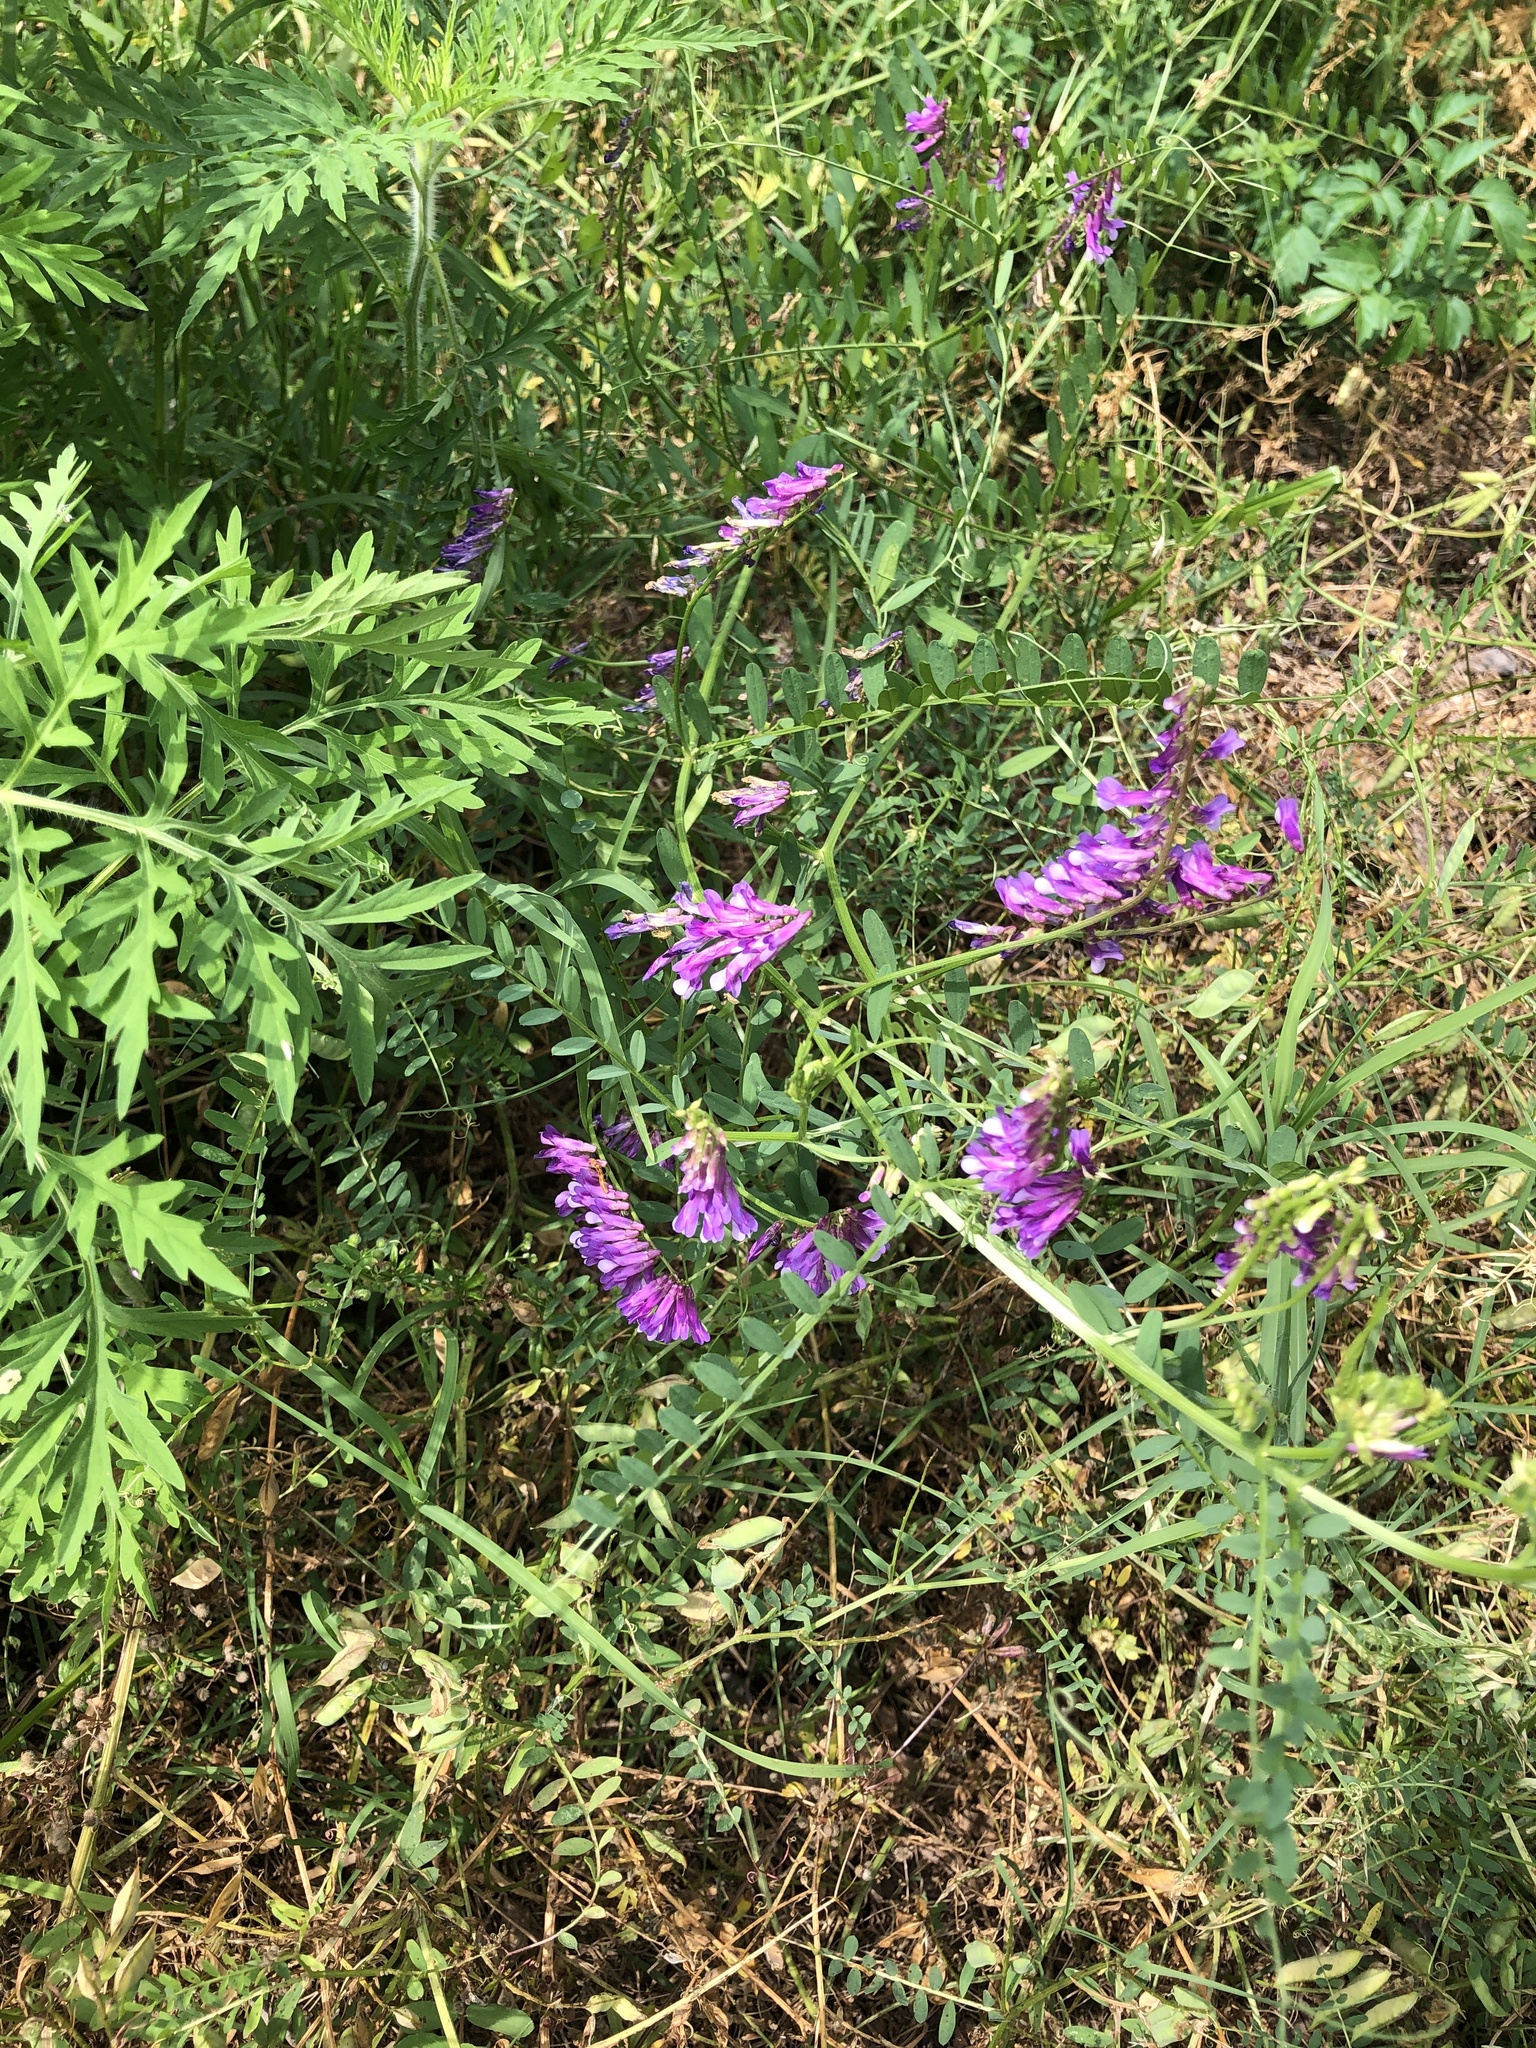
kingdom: Plantae
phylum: Tracheophyta
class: Magnoliopsida
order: Fabales
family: Fabaceae
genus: Vicia
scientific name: Vicia villosa
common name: Fodder vetch
